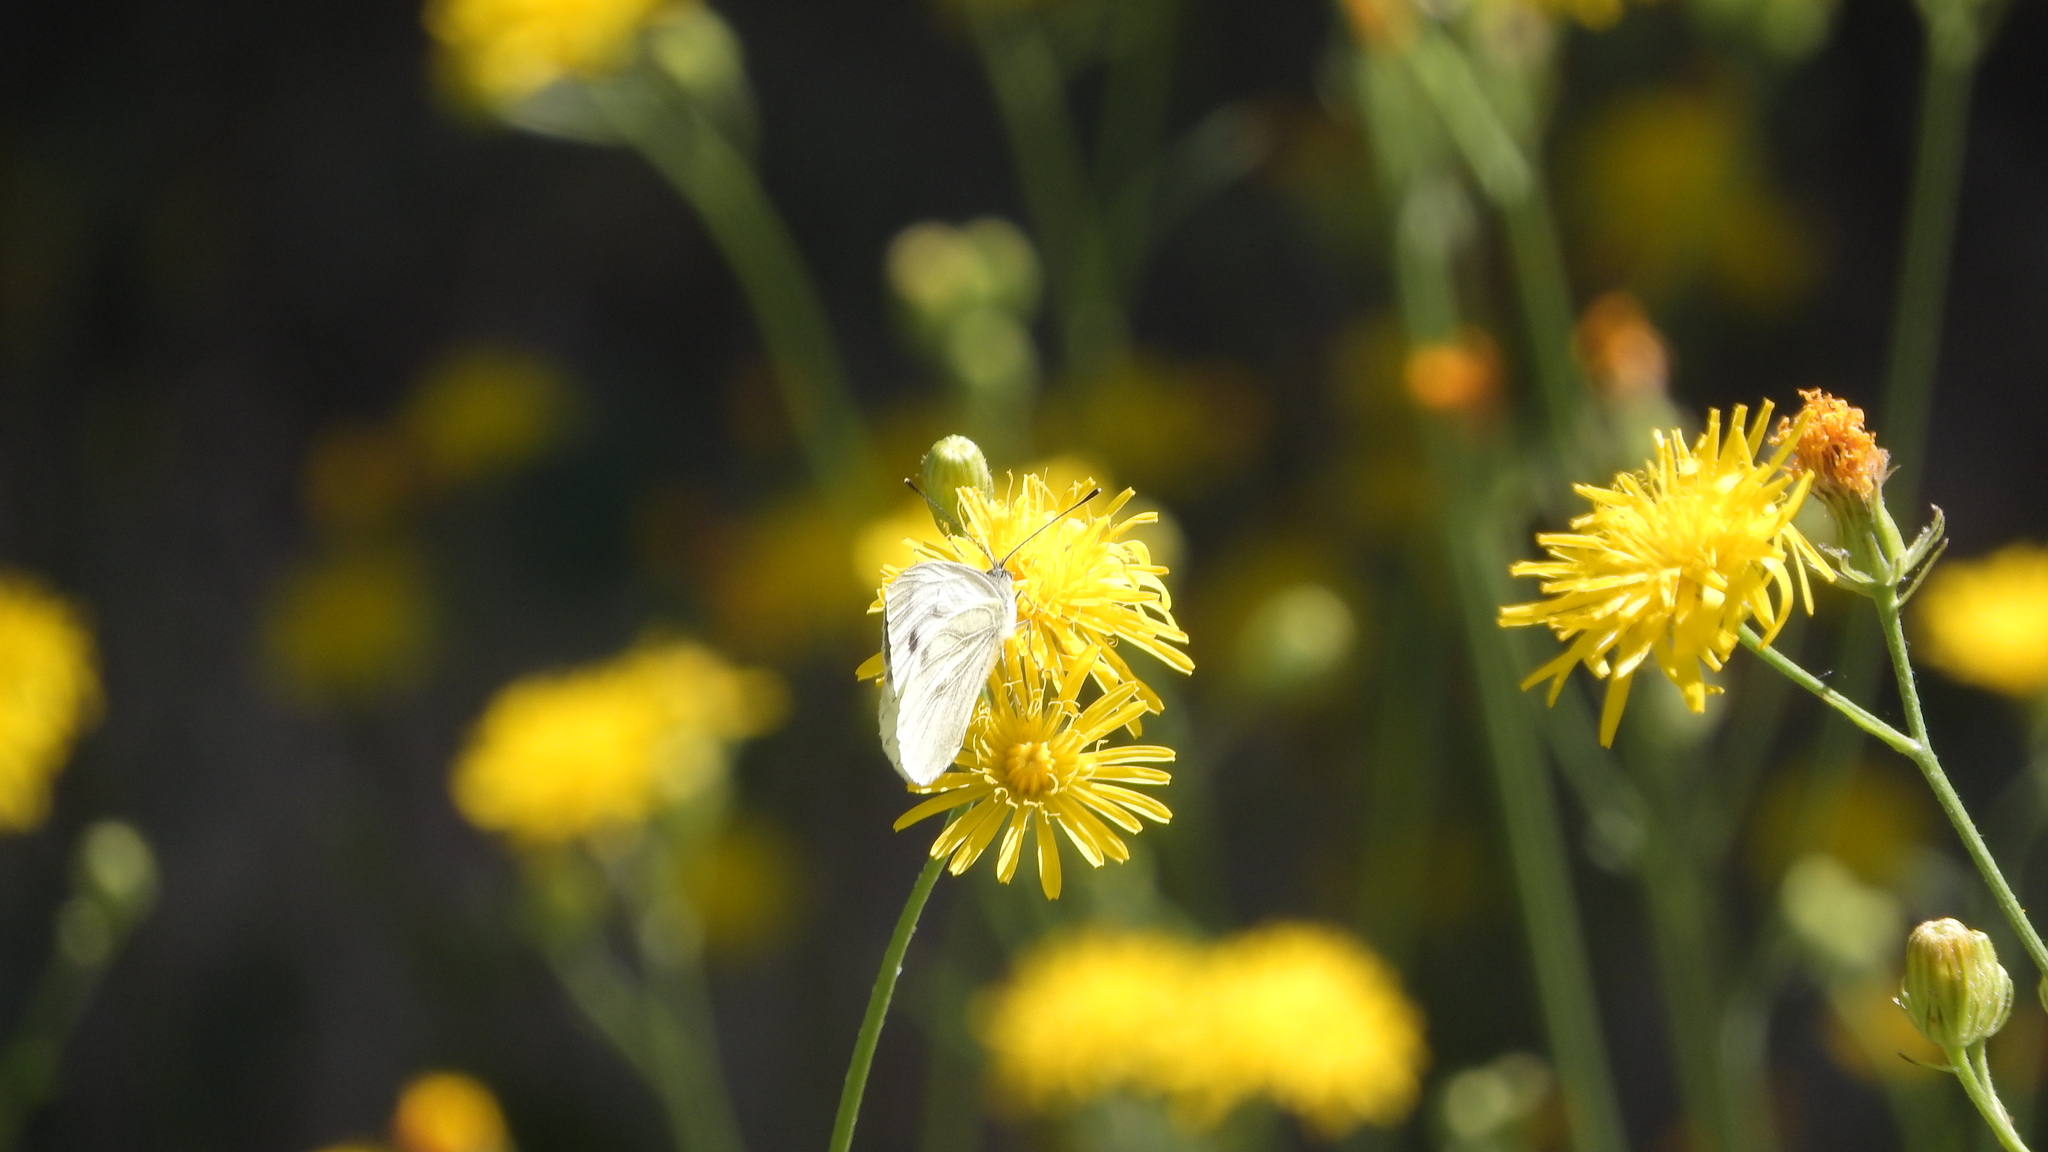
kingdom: Animalia
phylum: Arthropoda
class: Insecta
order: Lepidoptera
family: Pieridae
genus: Pieris
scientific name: Pieris napi
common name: Green-veined white
